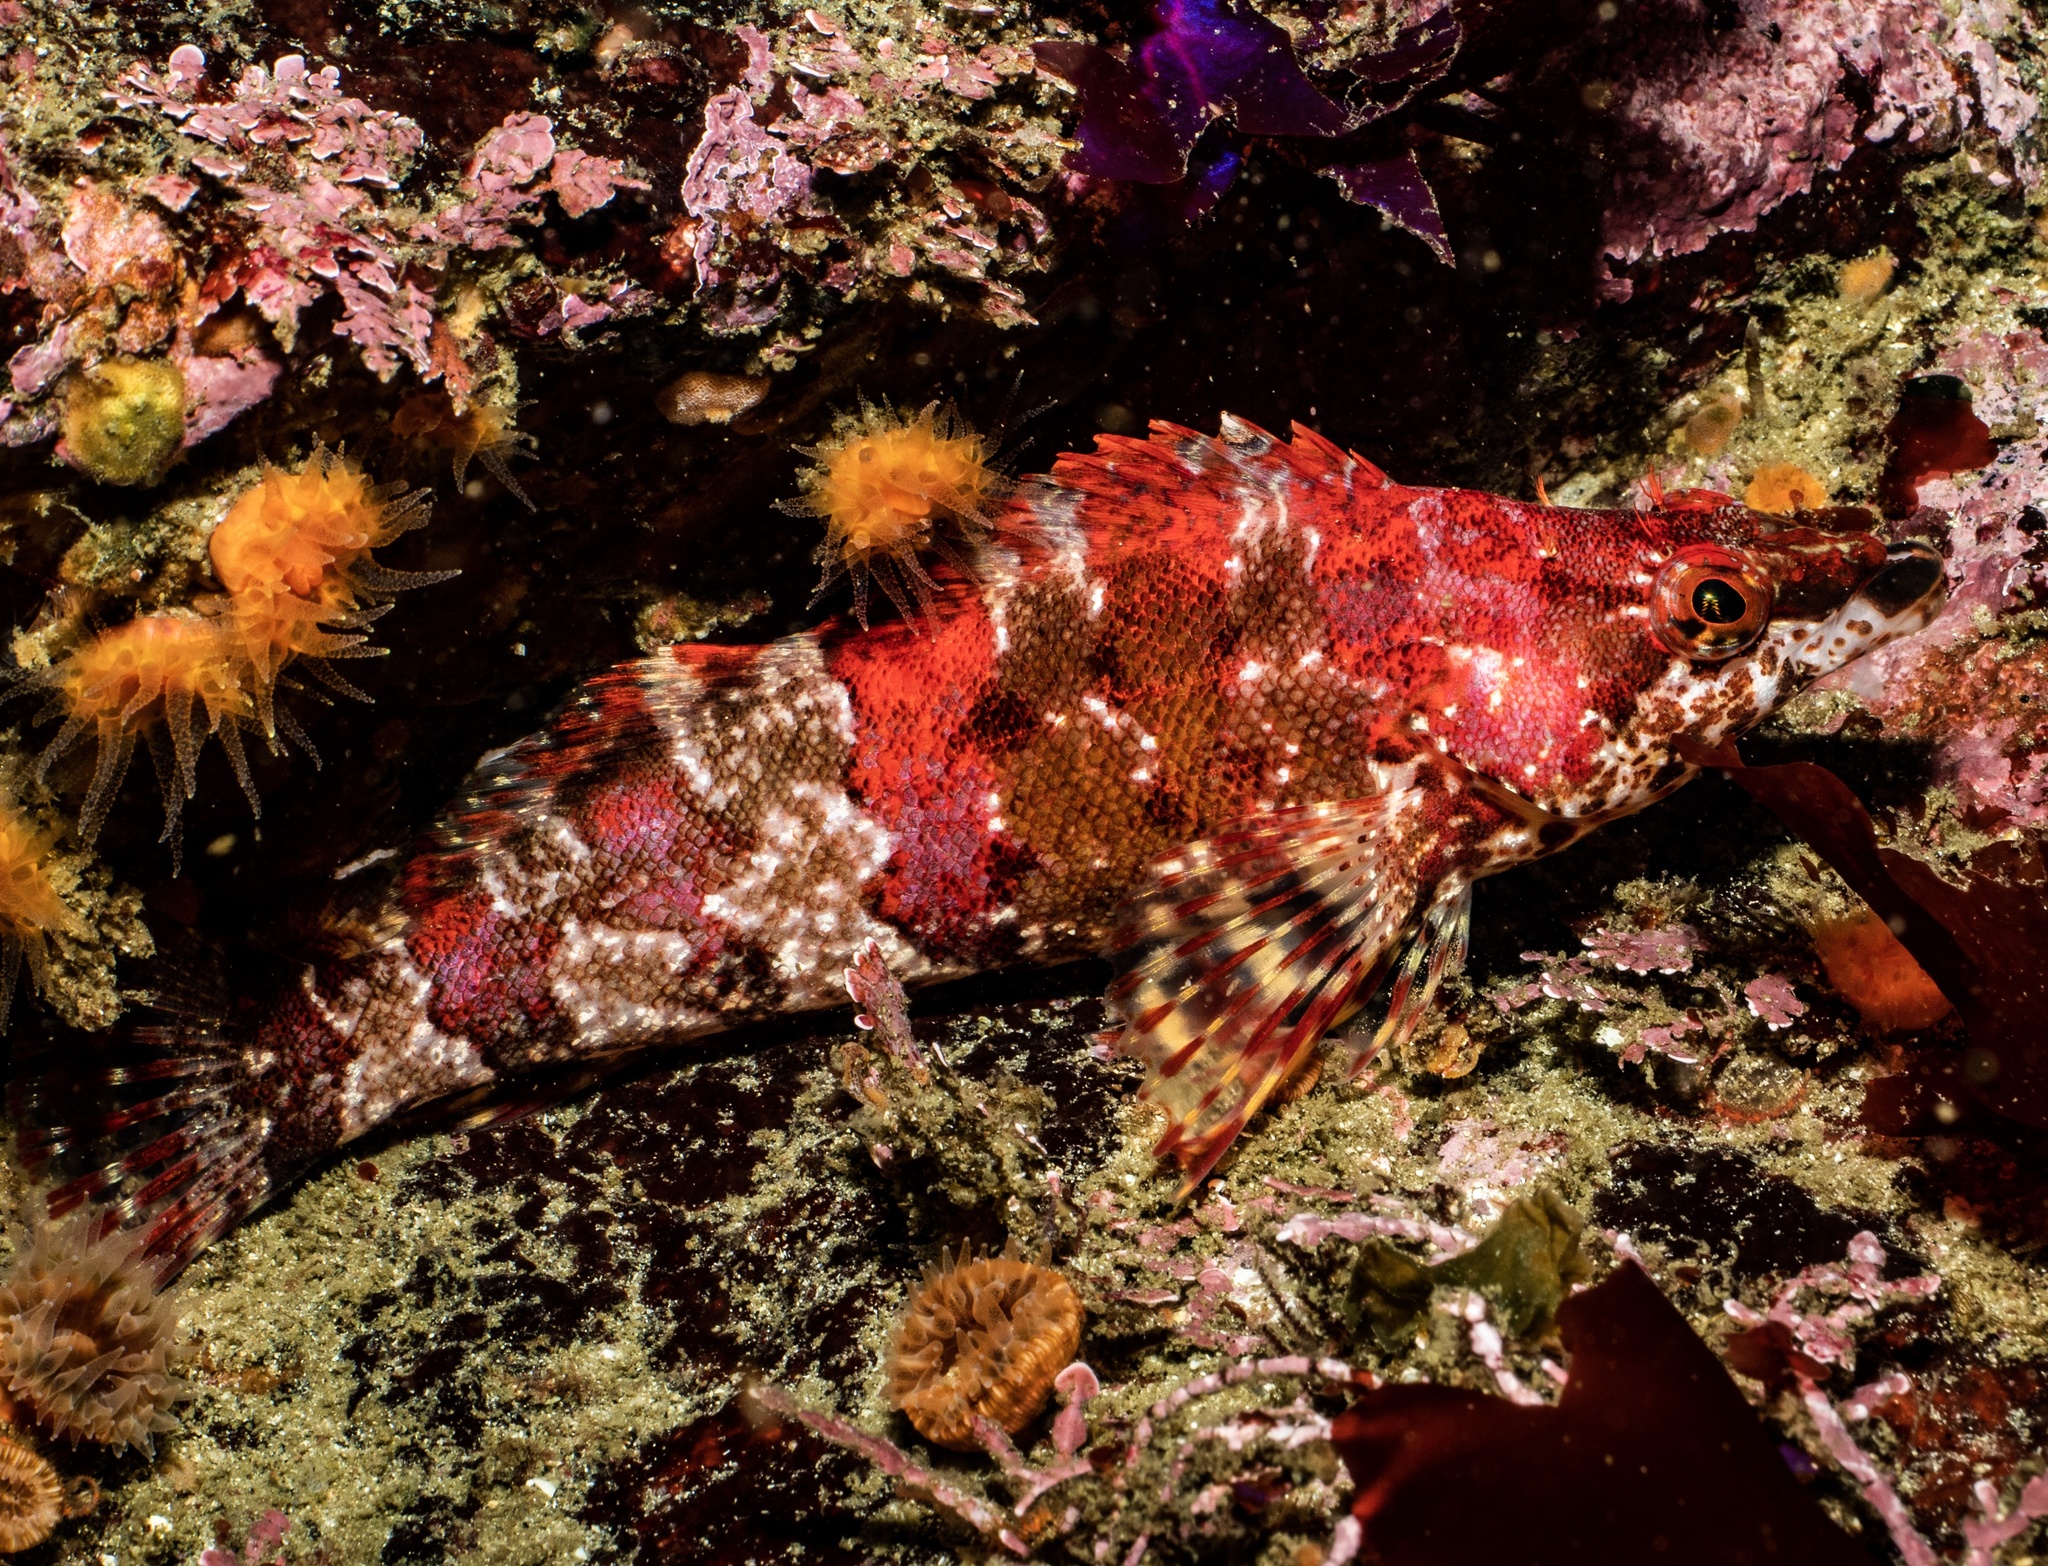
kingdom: Animalia
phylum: Chordata
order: Scorpaeniformes
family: Hexagrammidae
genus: Oxylebius
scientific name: Oxylebius pictus
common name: Painted greenling
